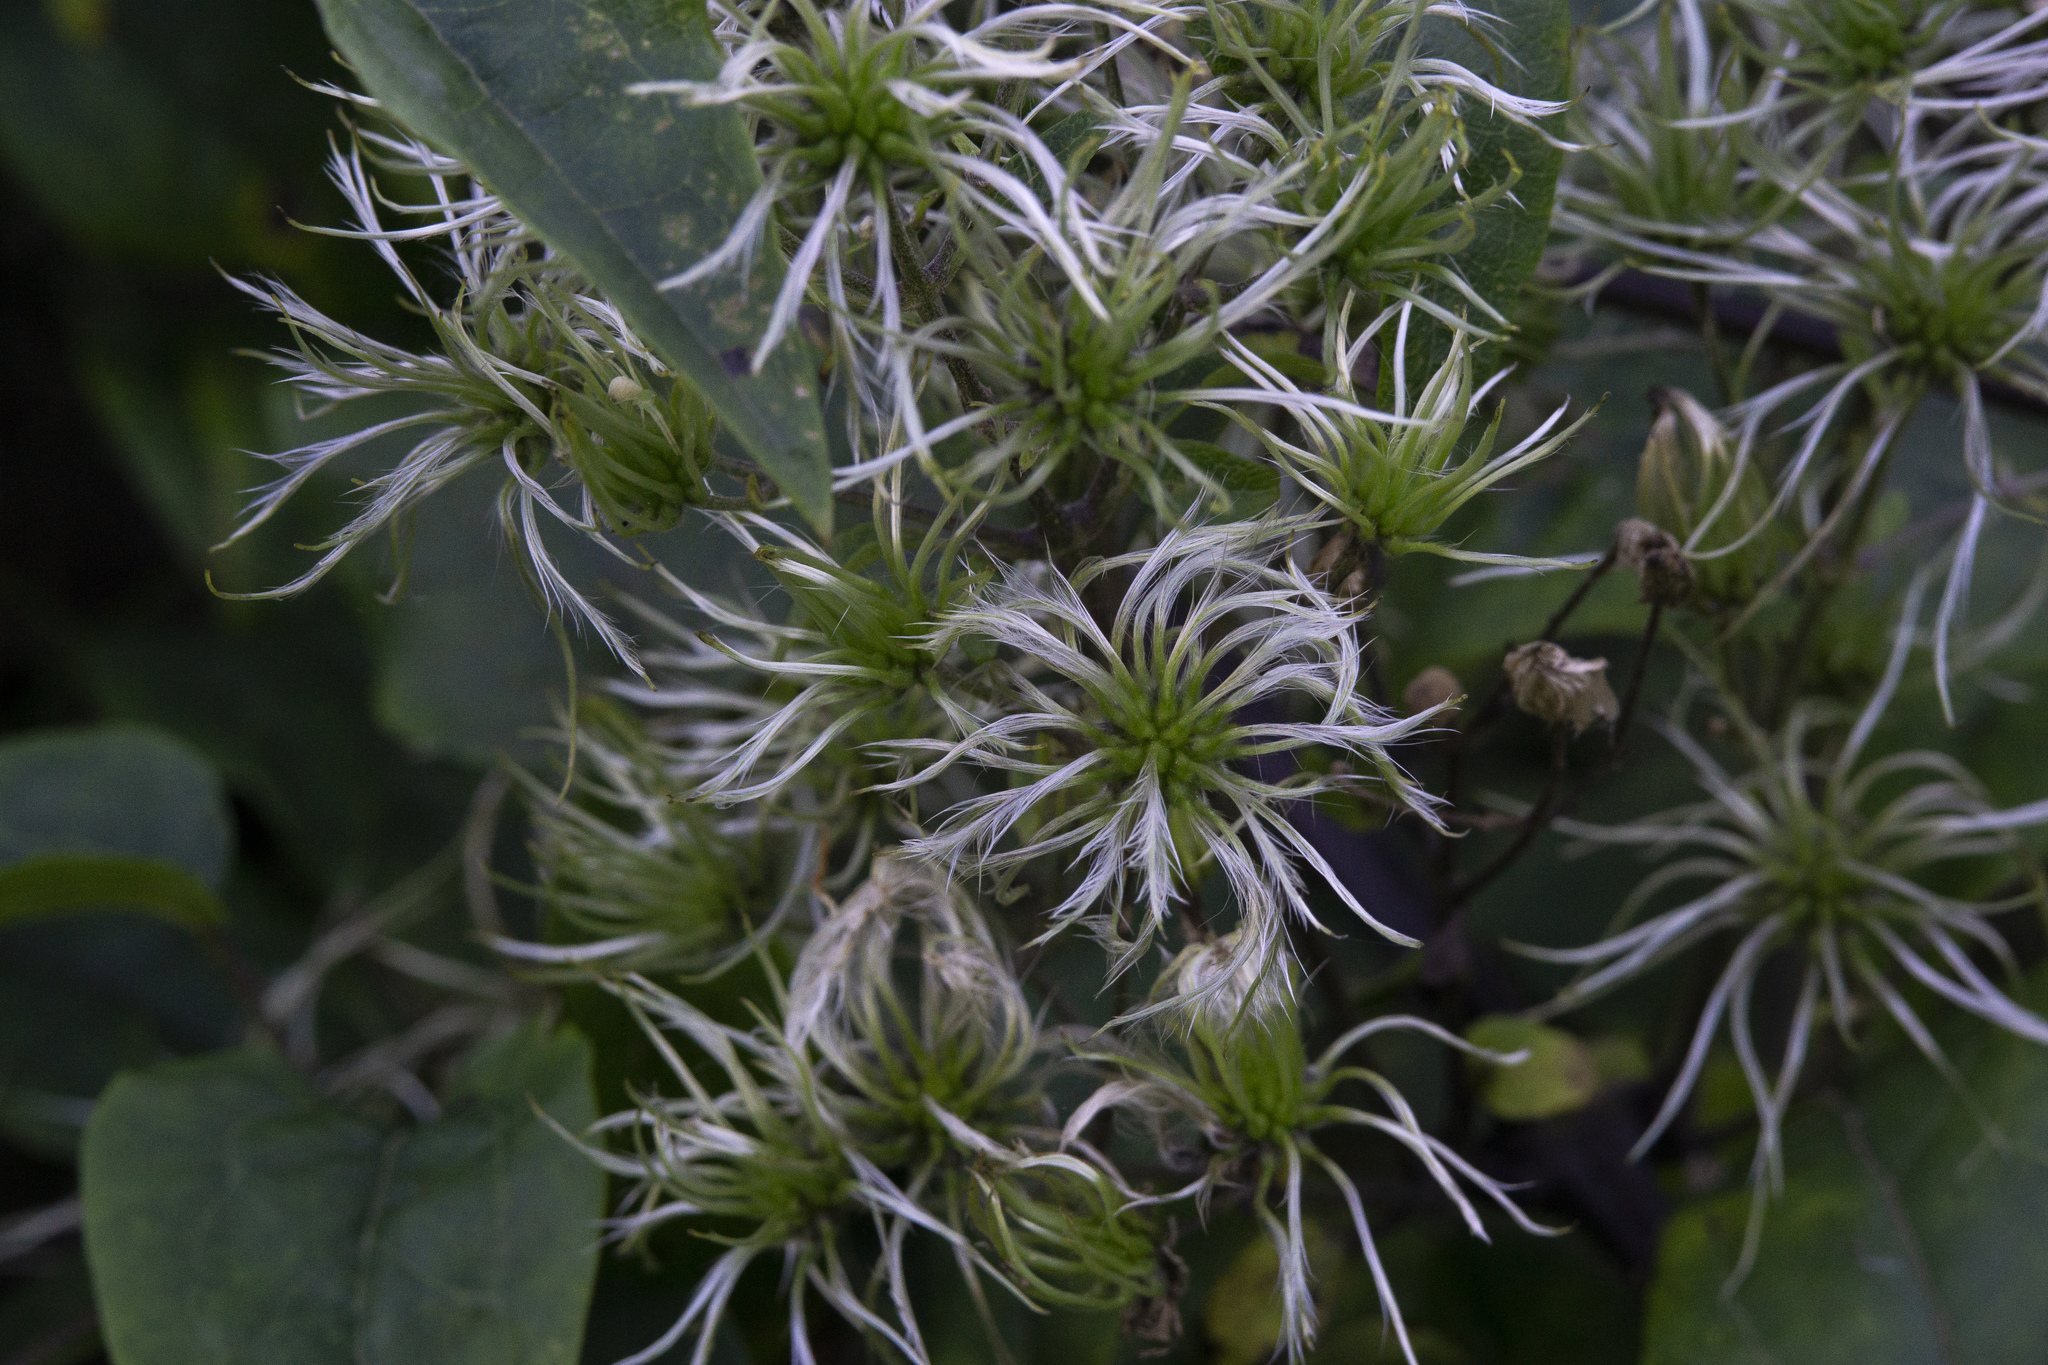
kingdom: Plantae
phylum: Tracheophyta
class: Magnoliopsida
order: Ranunculales
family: Ranunculaceae
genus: Clematis
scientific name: Clematis vitalba
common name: Evergreen clematis
